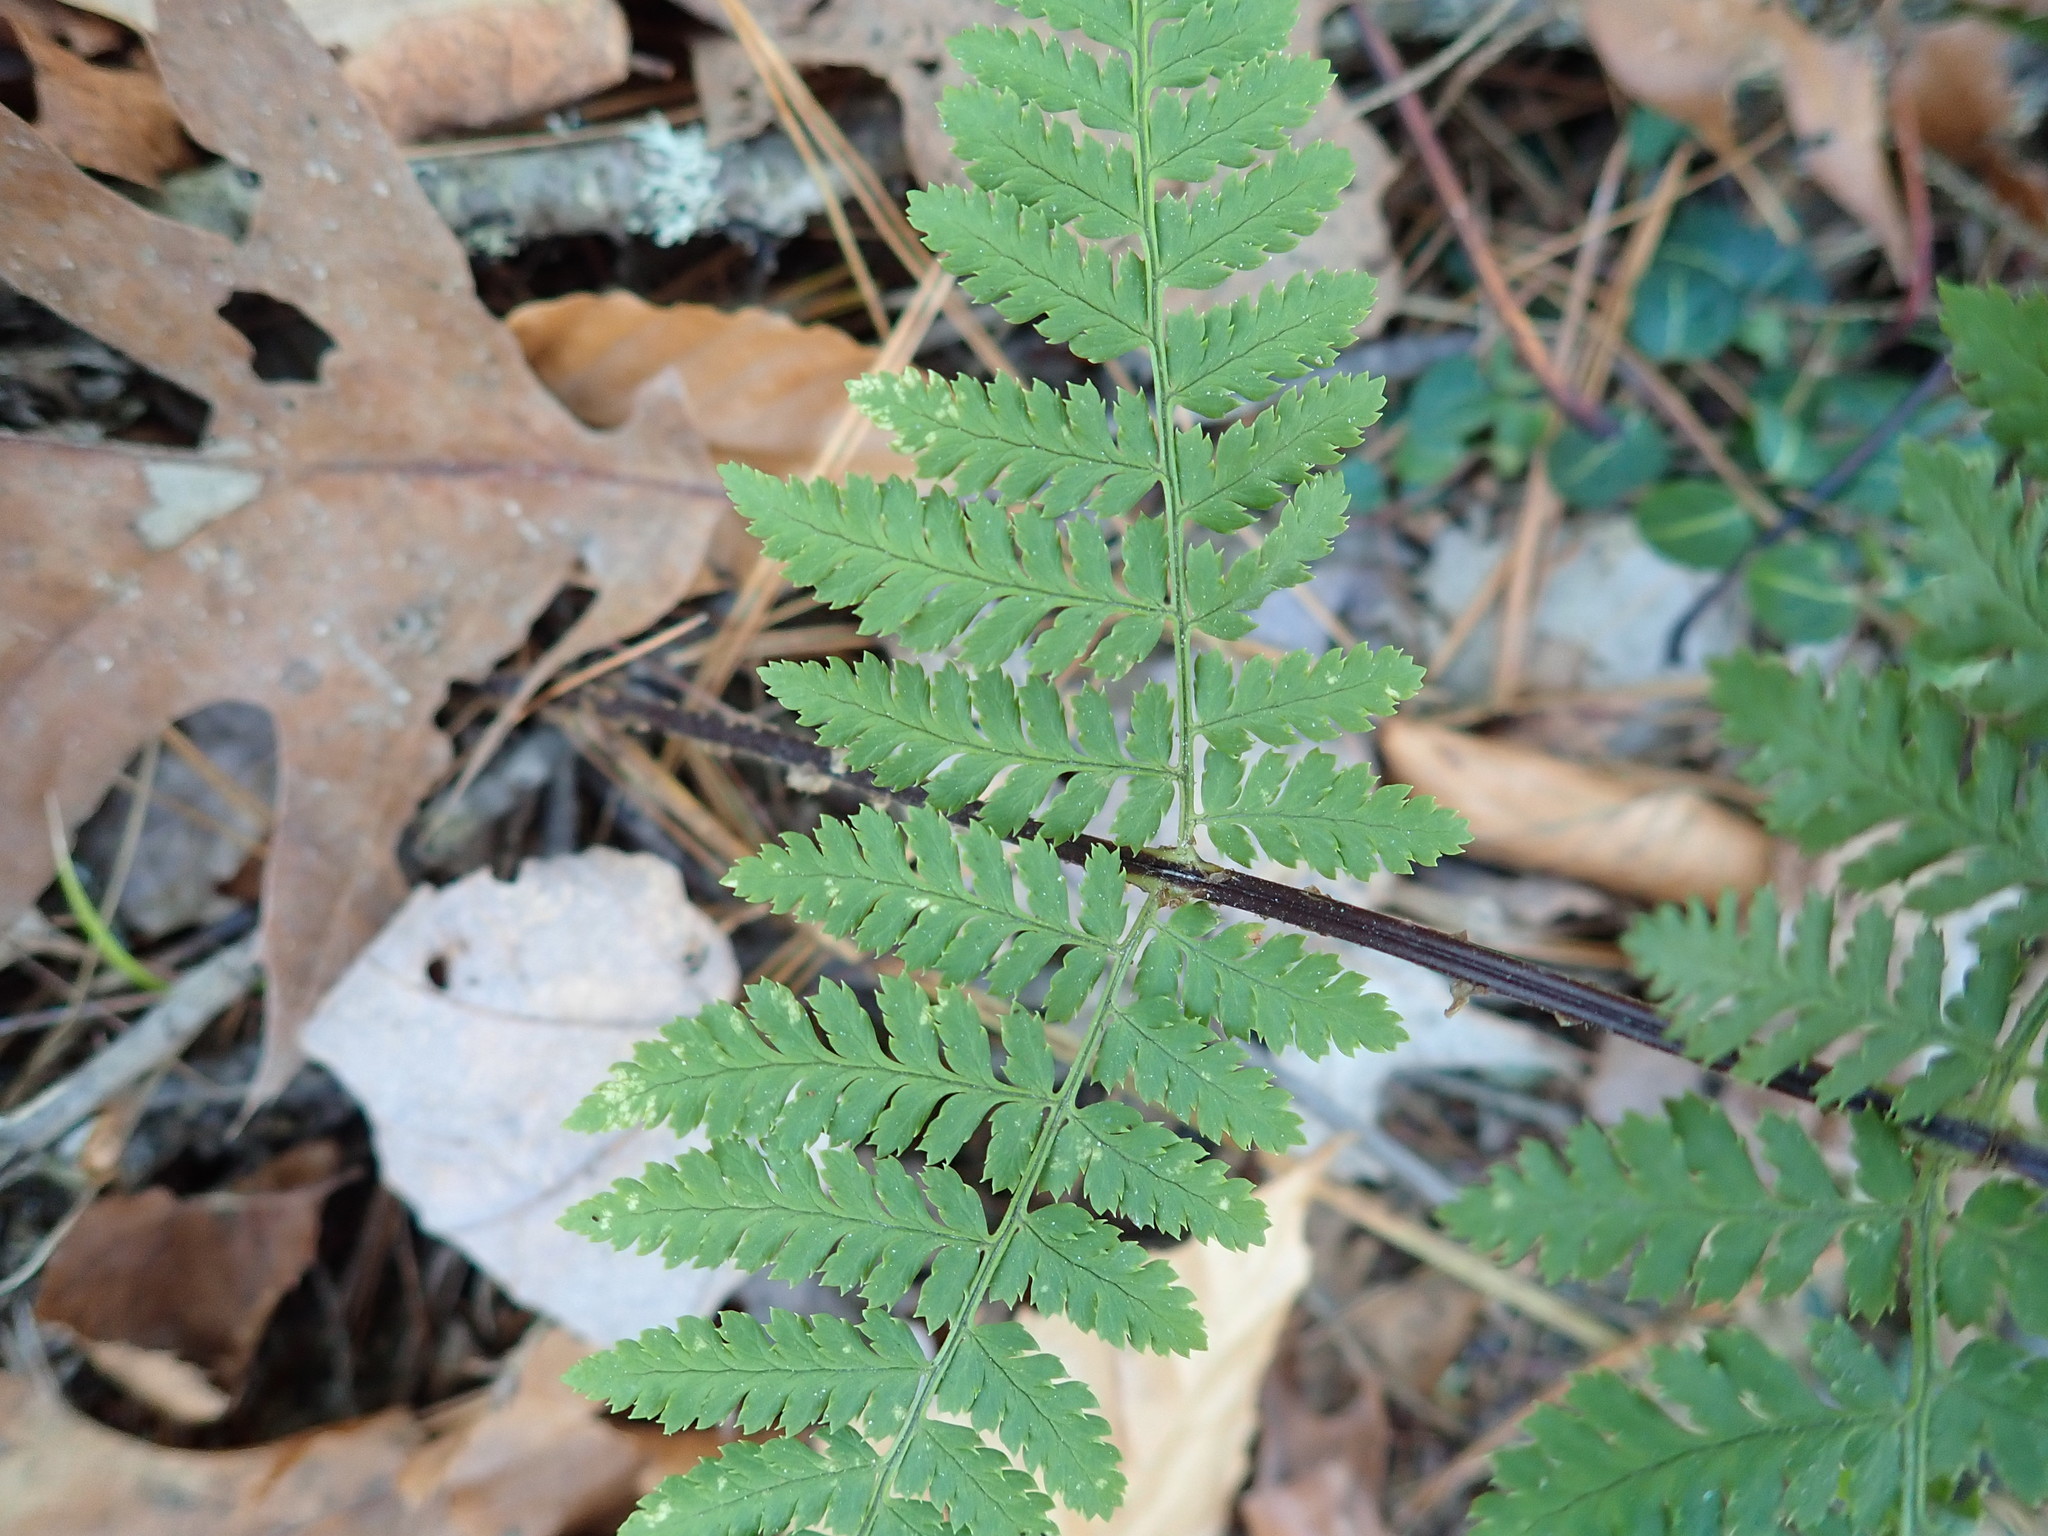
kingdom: Plantae
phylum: Tracheophyta
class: Polypodiopsida
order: Polypodiales
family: Dryopteridaceae
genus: Dryopteris
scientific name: Dryopteris intermedia
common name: Evergreen wood fern
